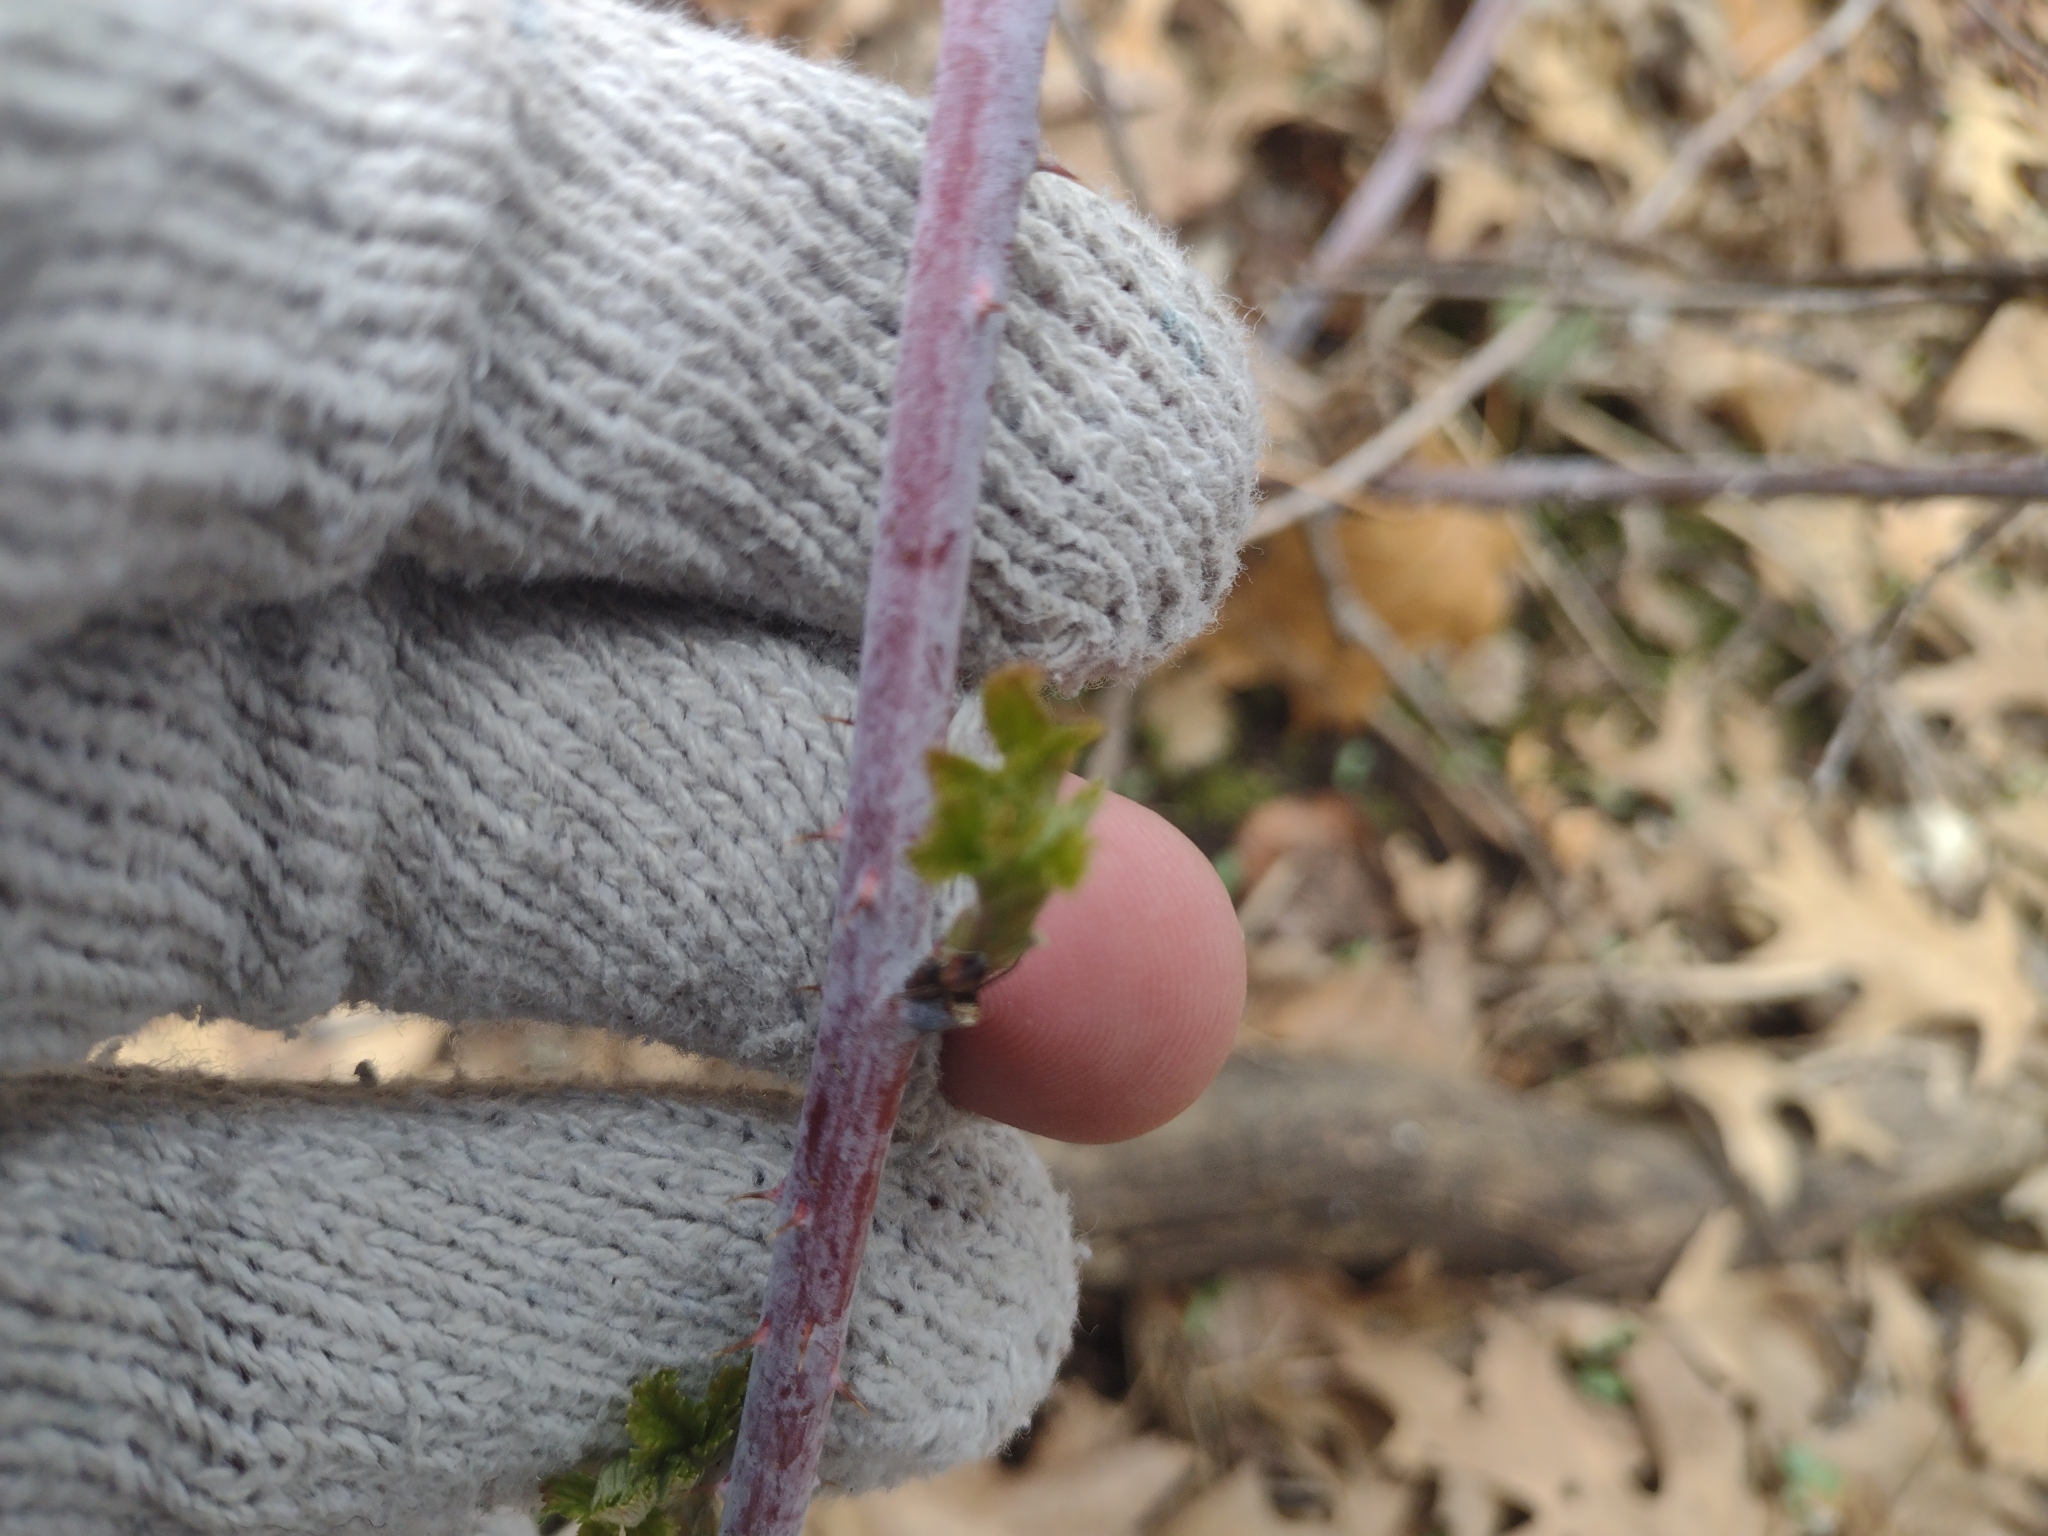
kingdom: Plantae
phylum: Tracheophyta
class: Magnoliopsida
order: Rosales
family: Rosaceae
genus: Rubus
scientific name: Rubus occidentalis
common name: Black raspberry
